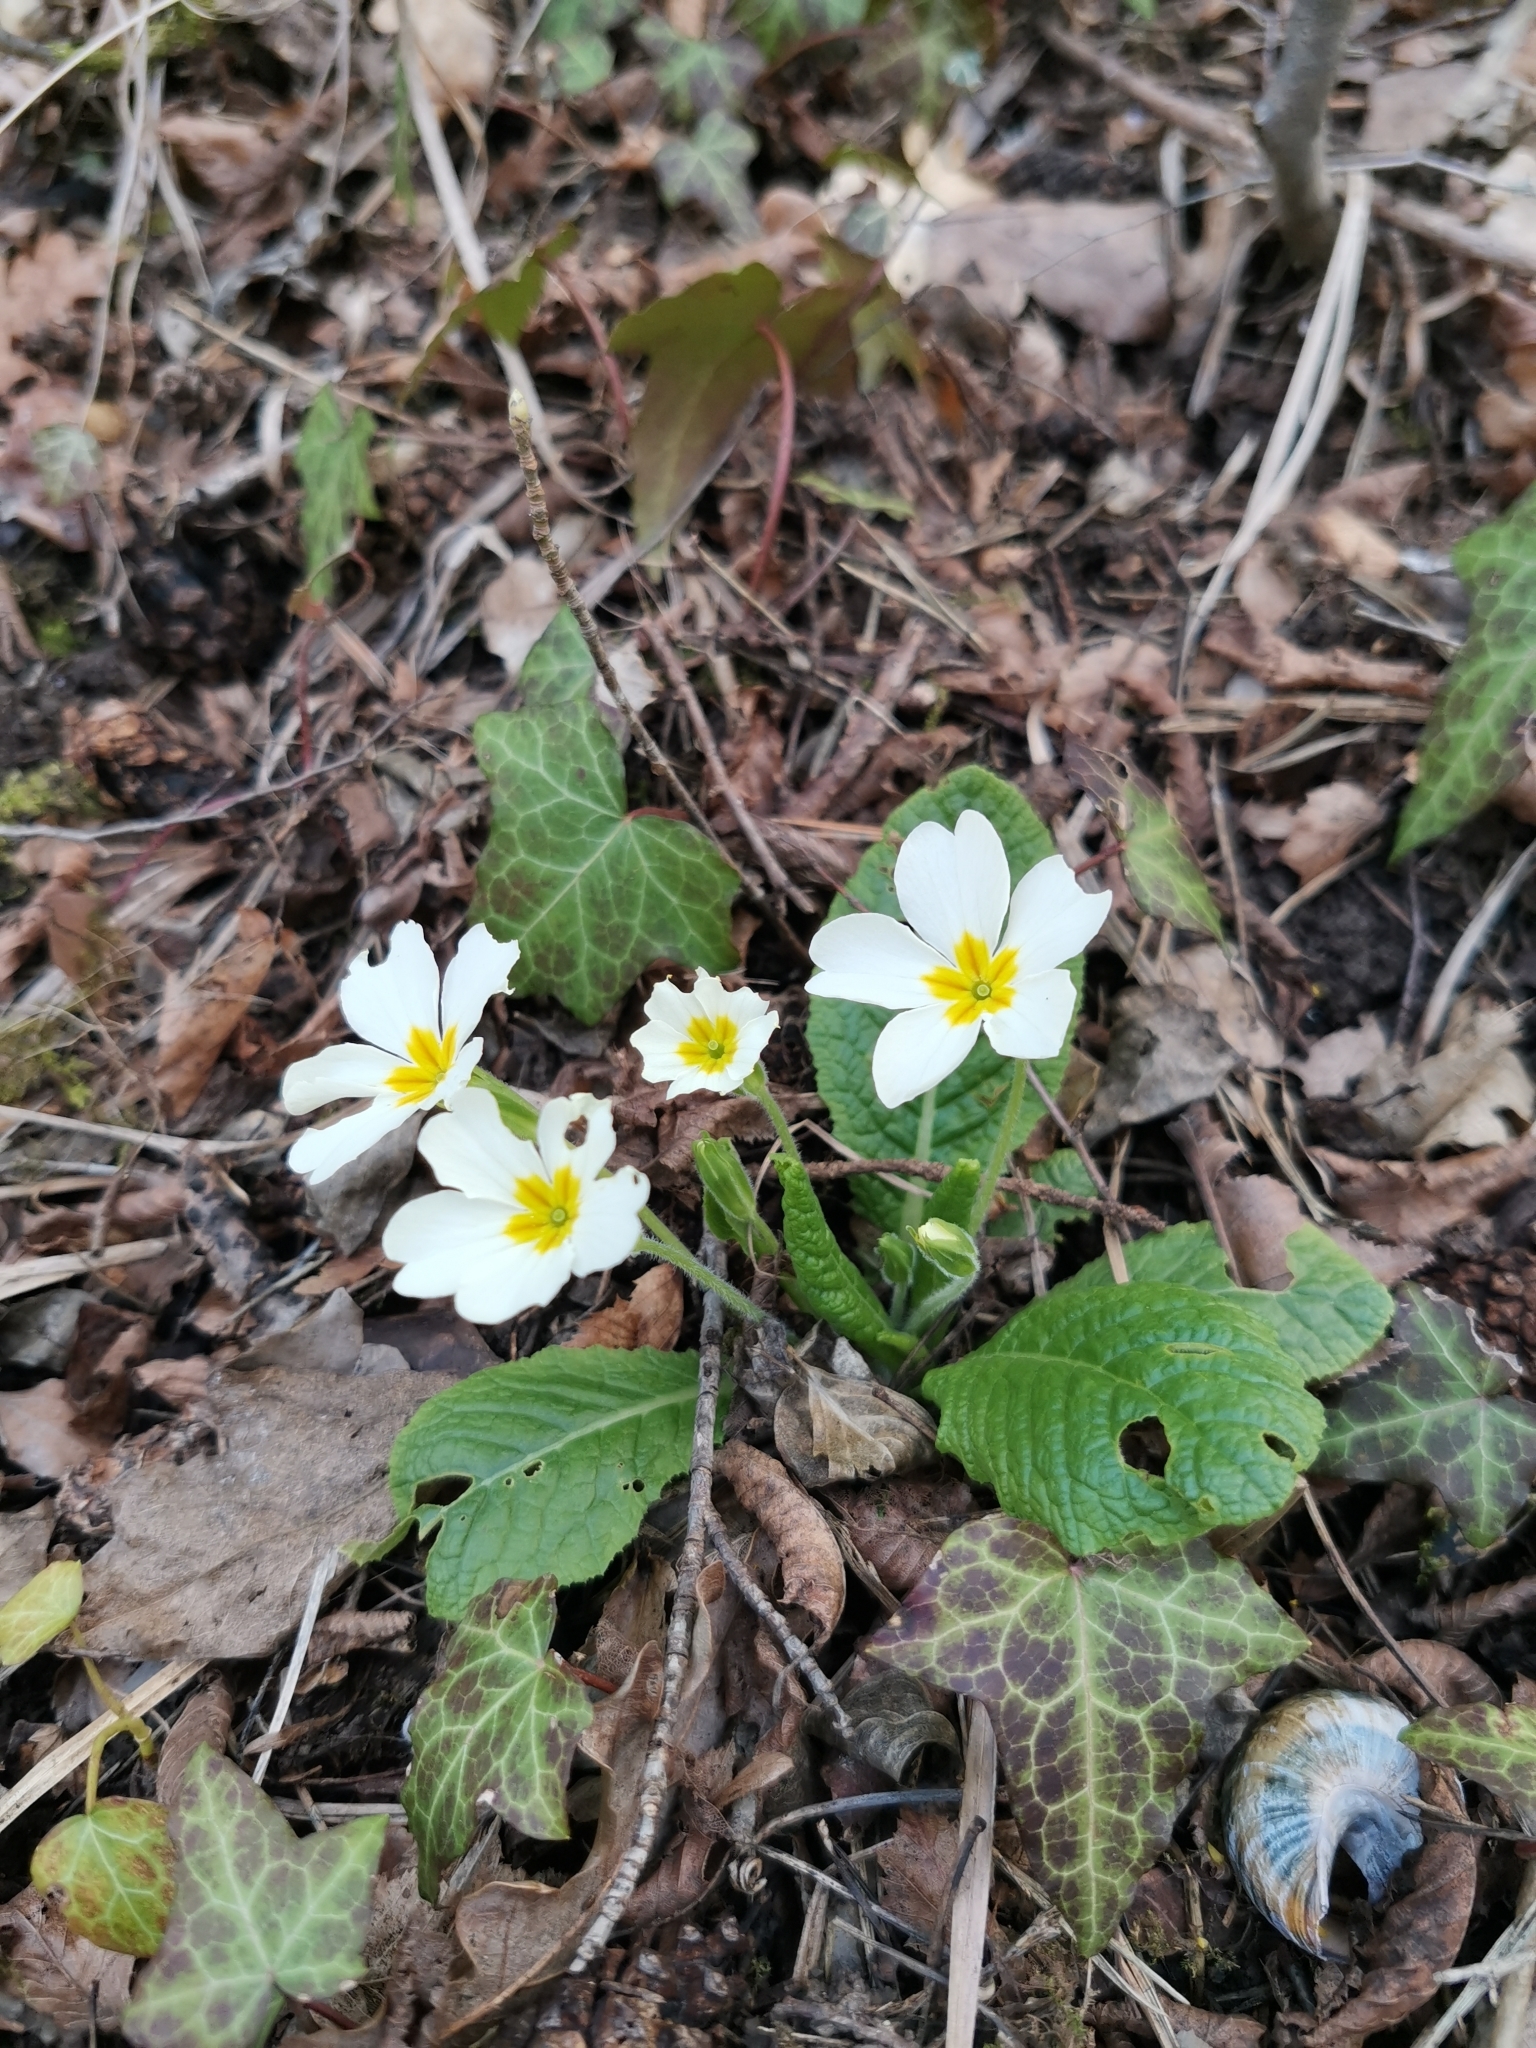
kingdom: Plantae
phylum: Tracheophyta
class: Magnoliopsida
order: Ericales
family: Primulaceae
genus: Primula
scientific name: Primula vulgaris
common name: Primrose
